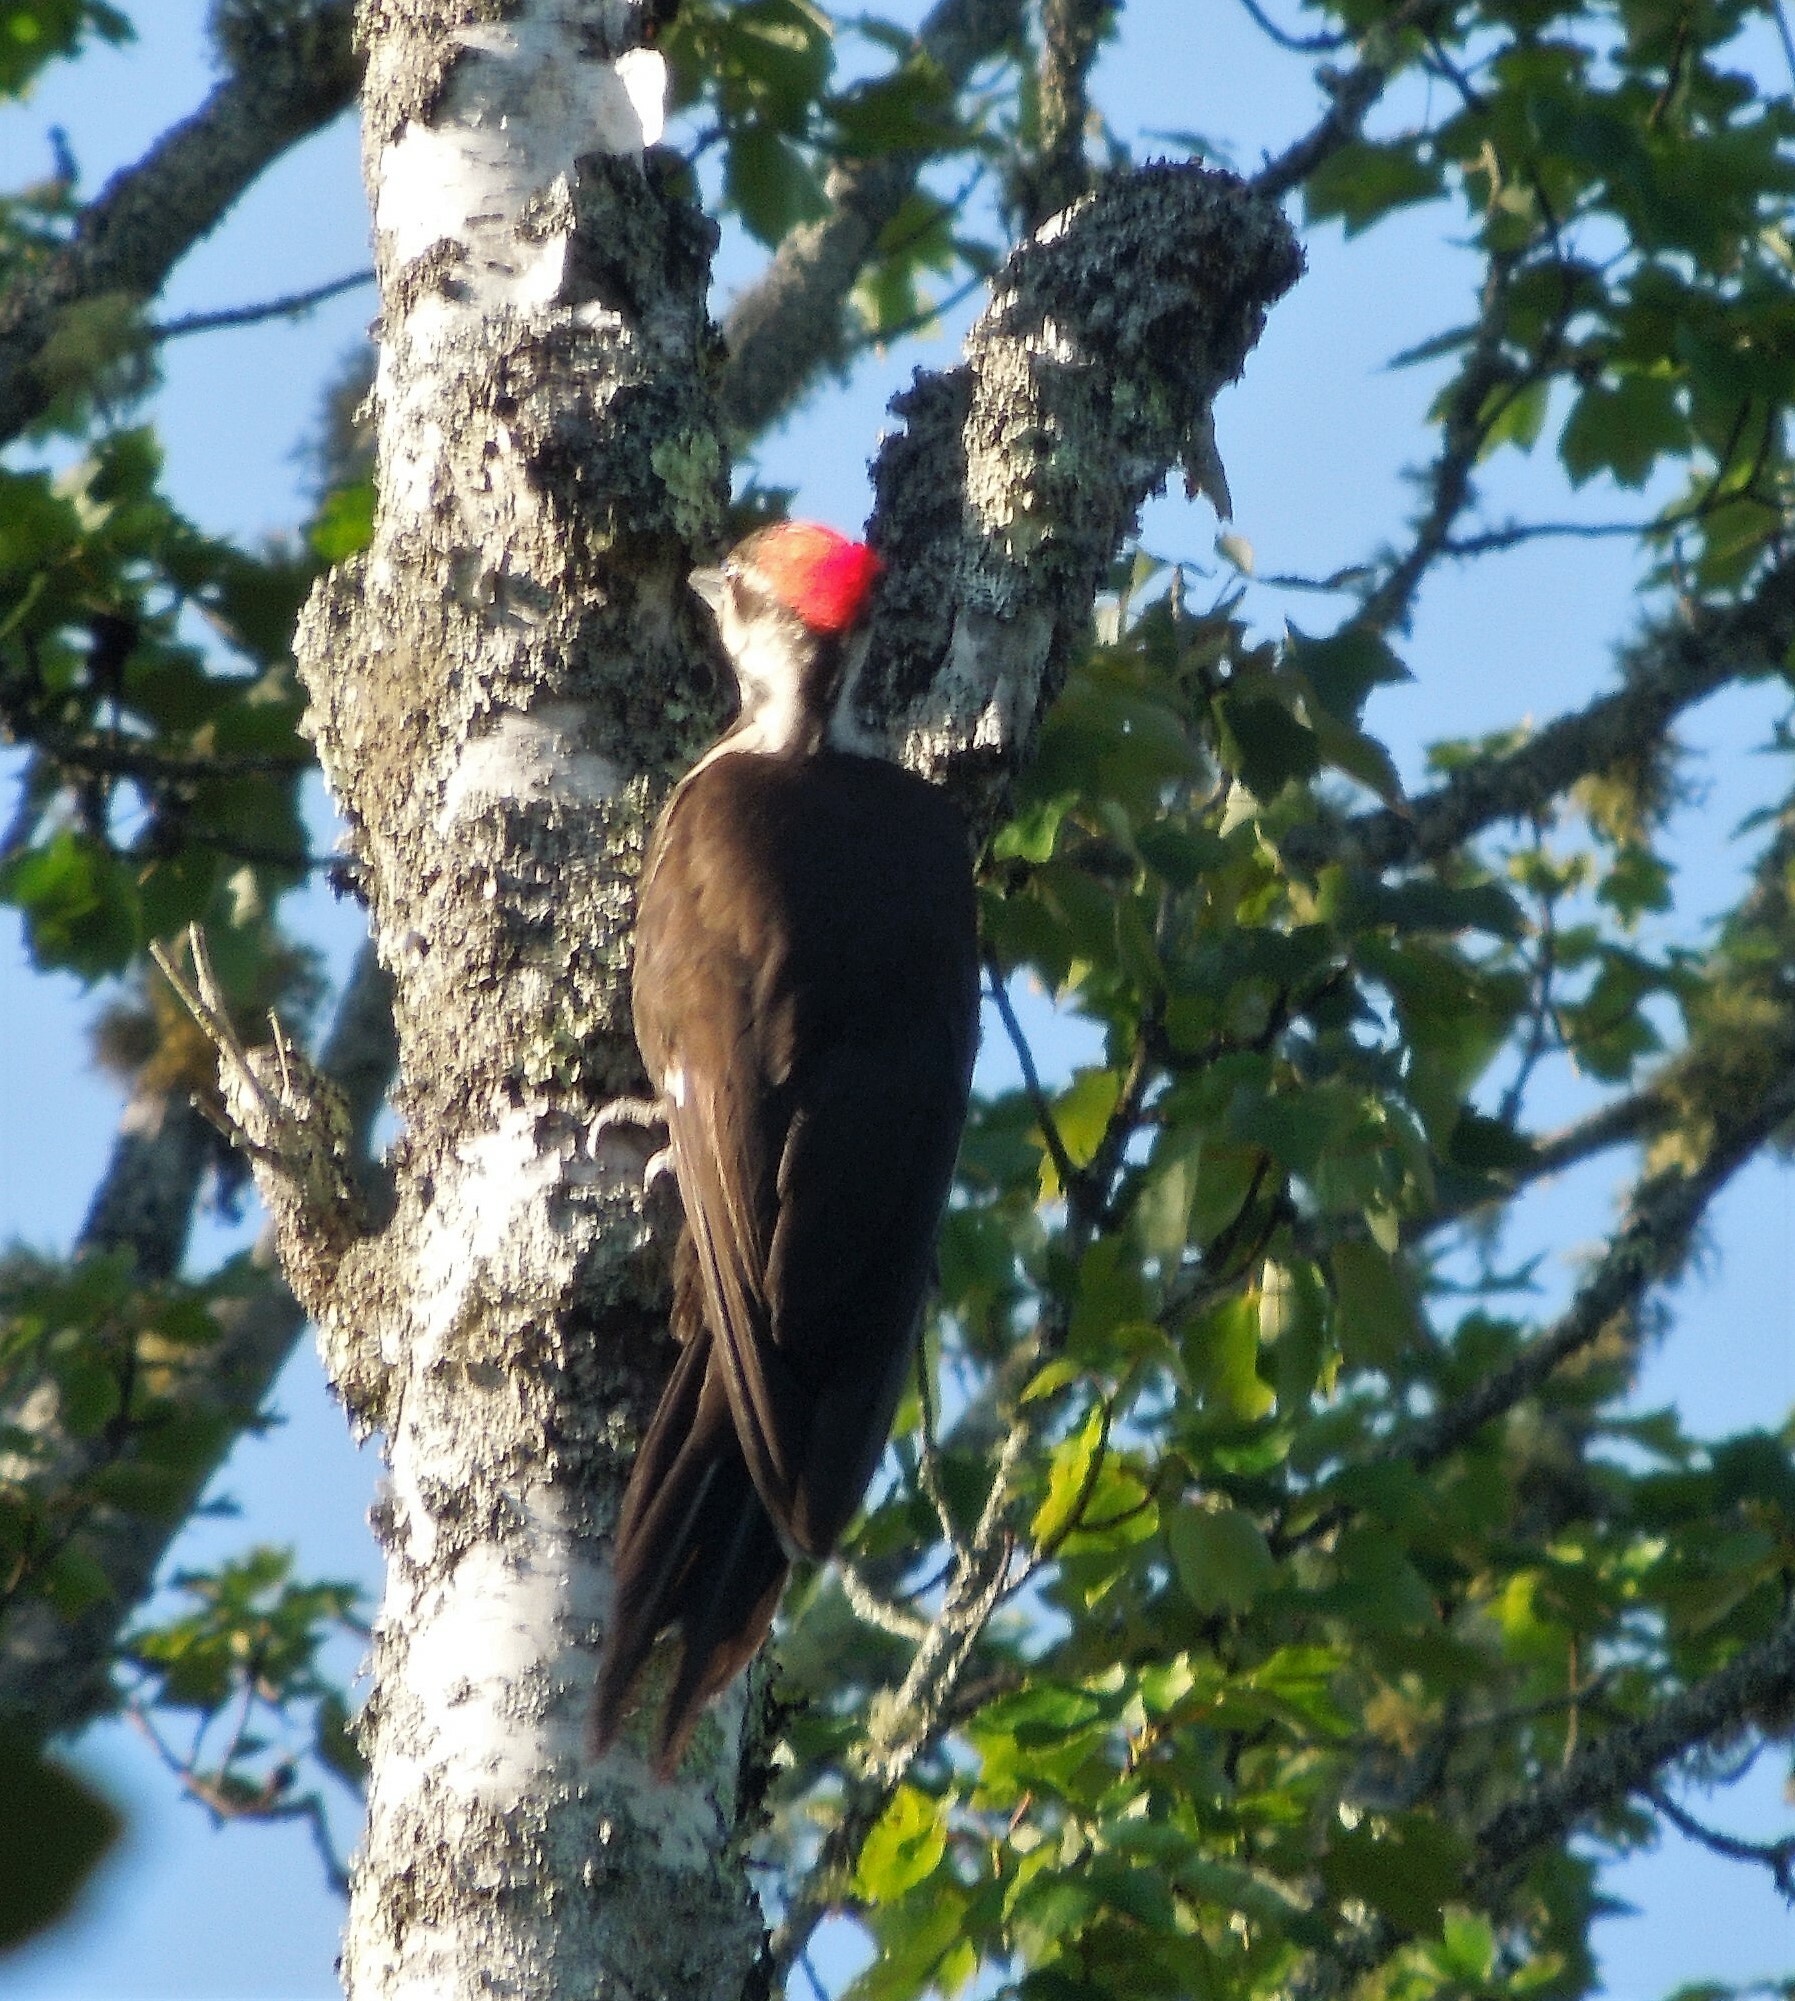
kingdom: Animalia
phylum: Chordata
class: Aves
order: Piciformes
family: Picidae
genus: Dryocopus
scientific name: Dryocopus pileatus
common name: Pileated woodpecker
